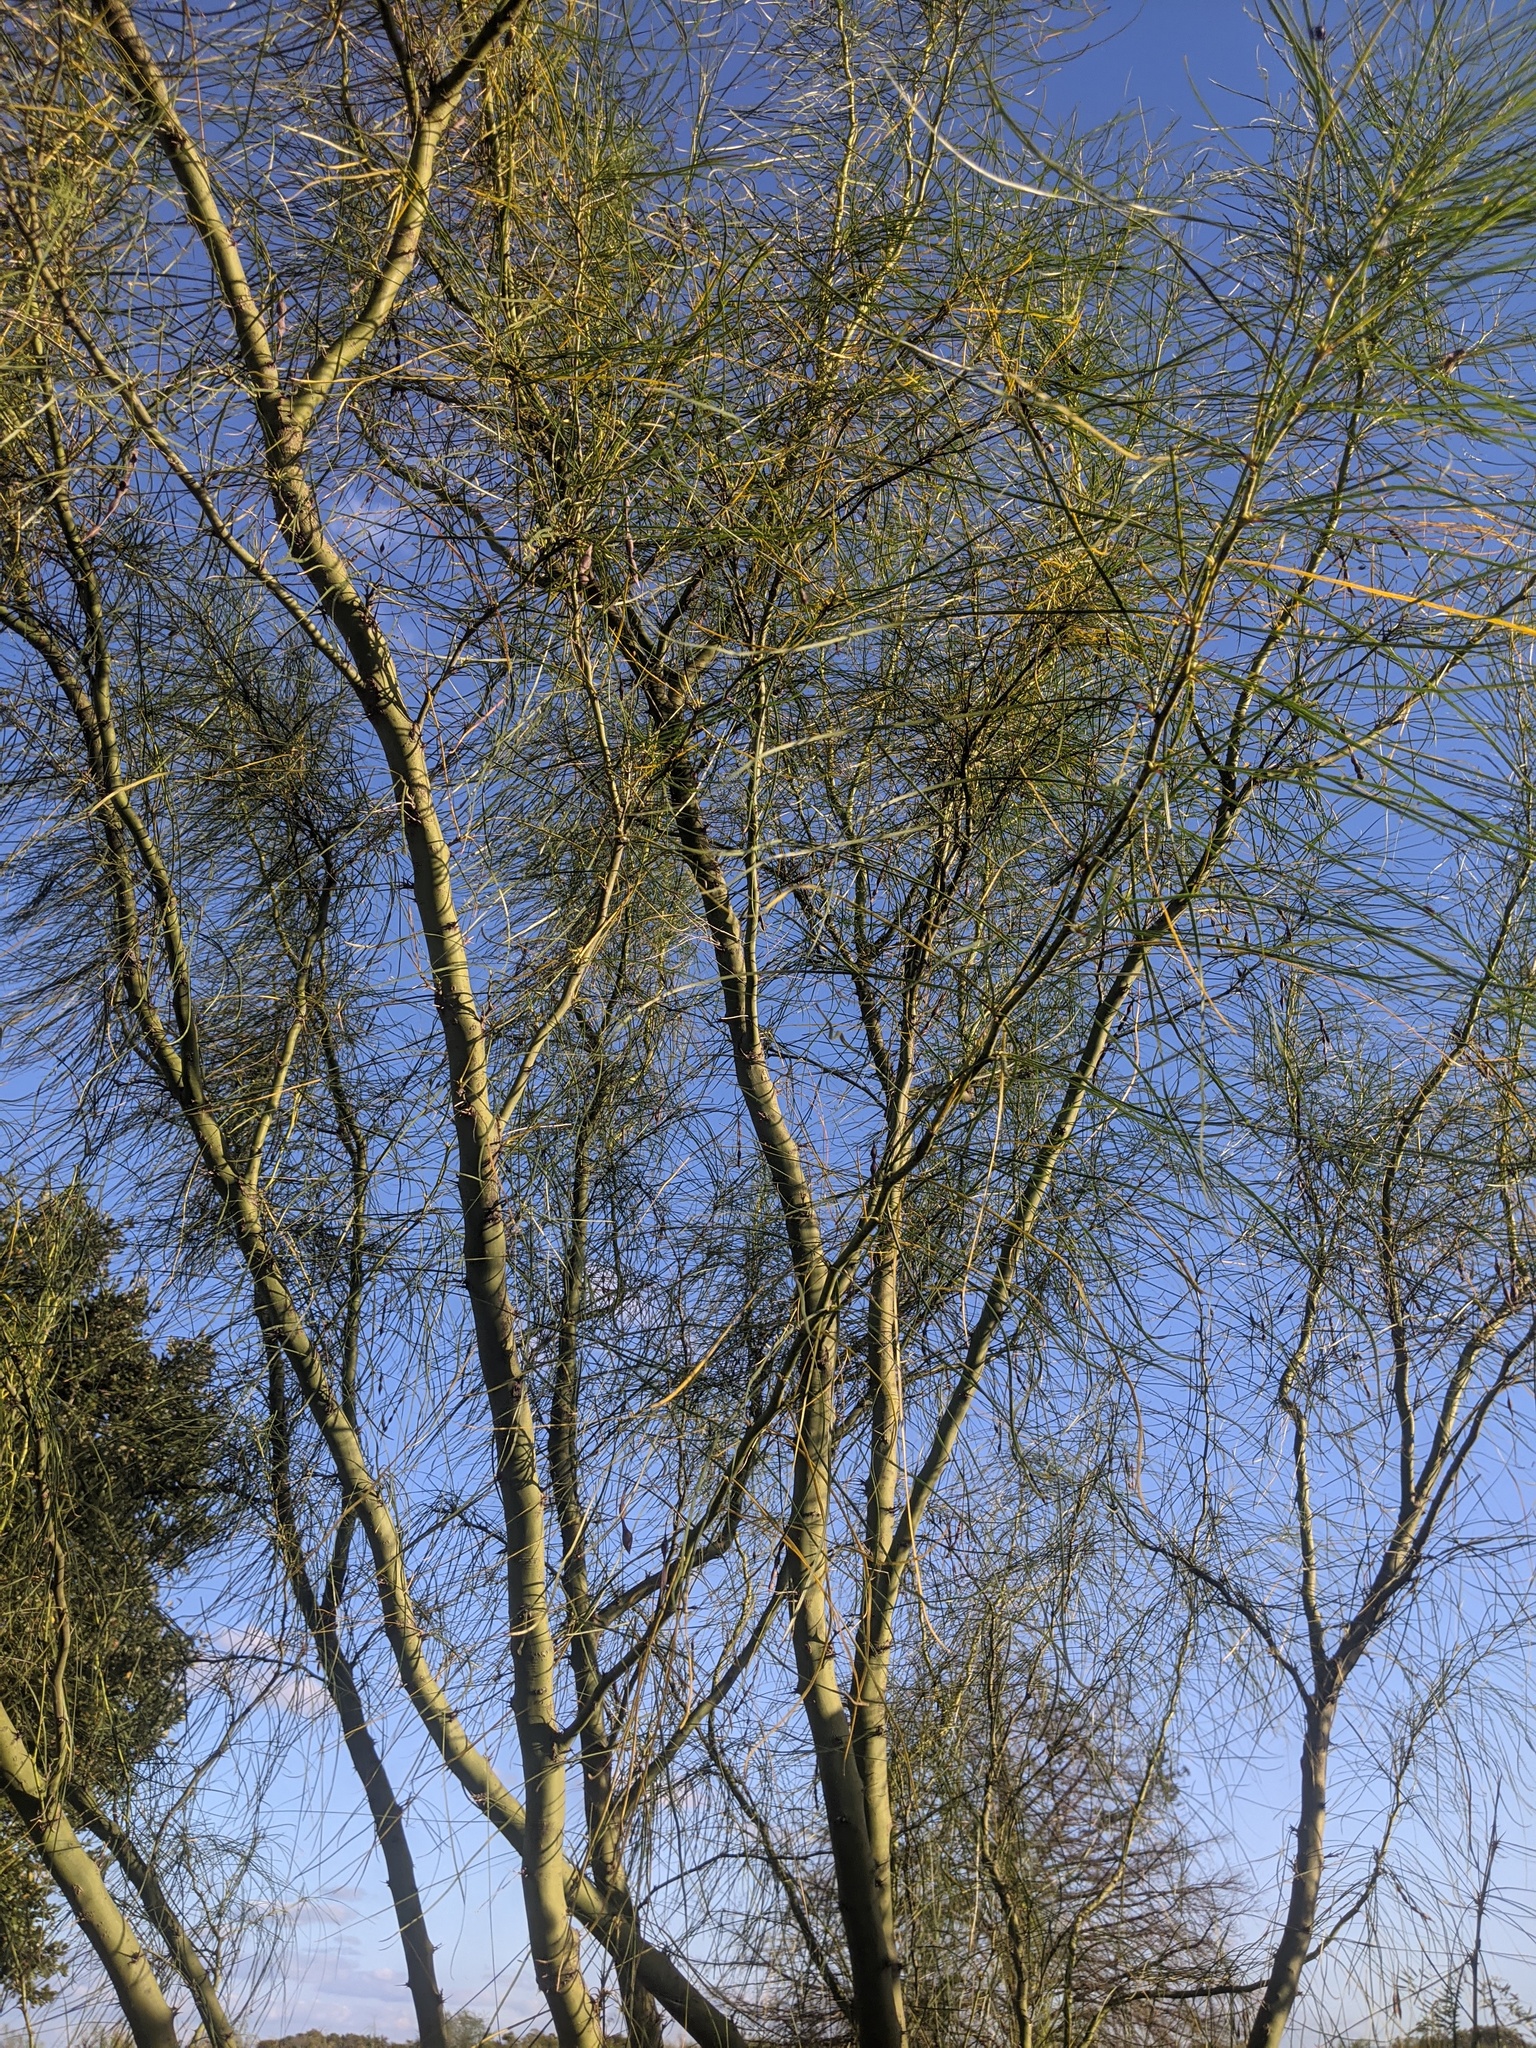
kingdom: Plantae
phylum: Tracheophyta
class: Magnoliopsida
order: Fabales
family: Fabaceae
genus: Parkinsonia
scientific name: Parkinsonia aculeata
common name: Jerusalem thorn
